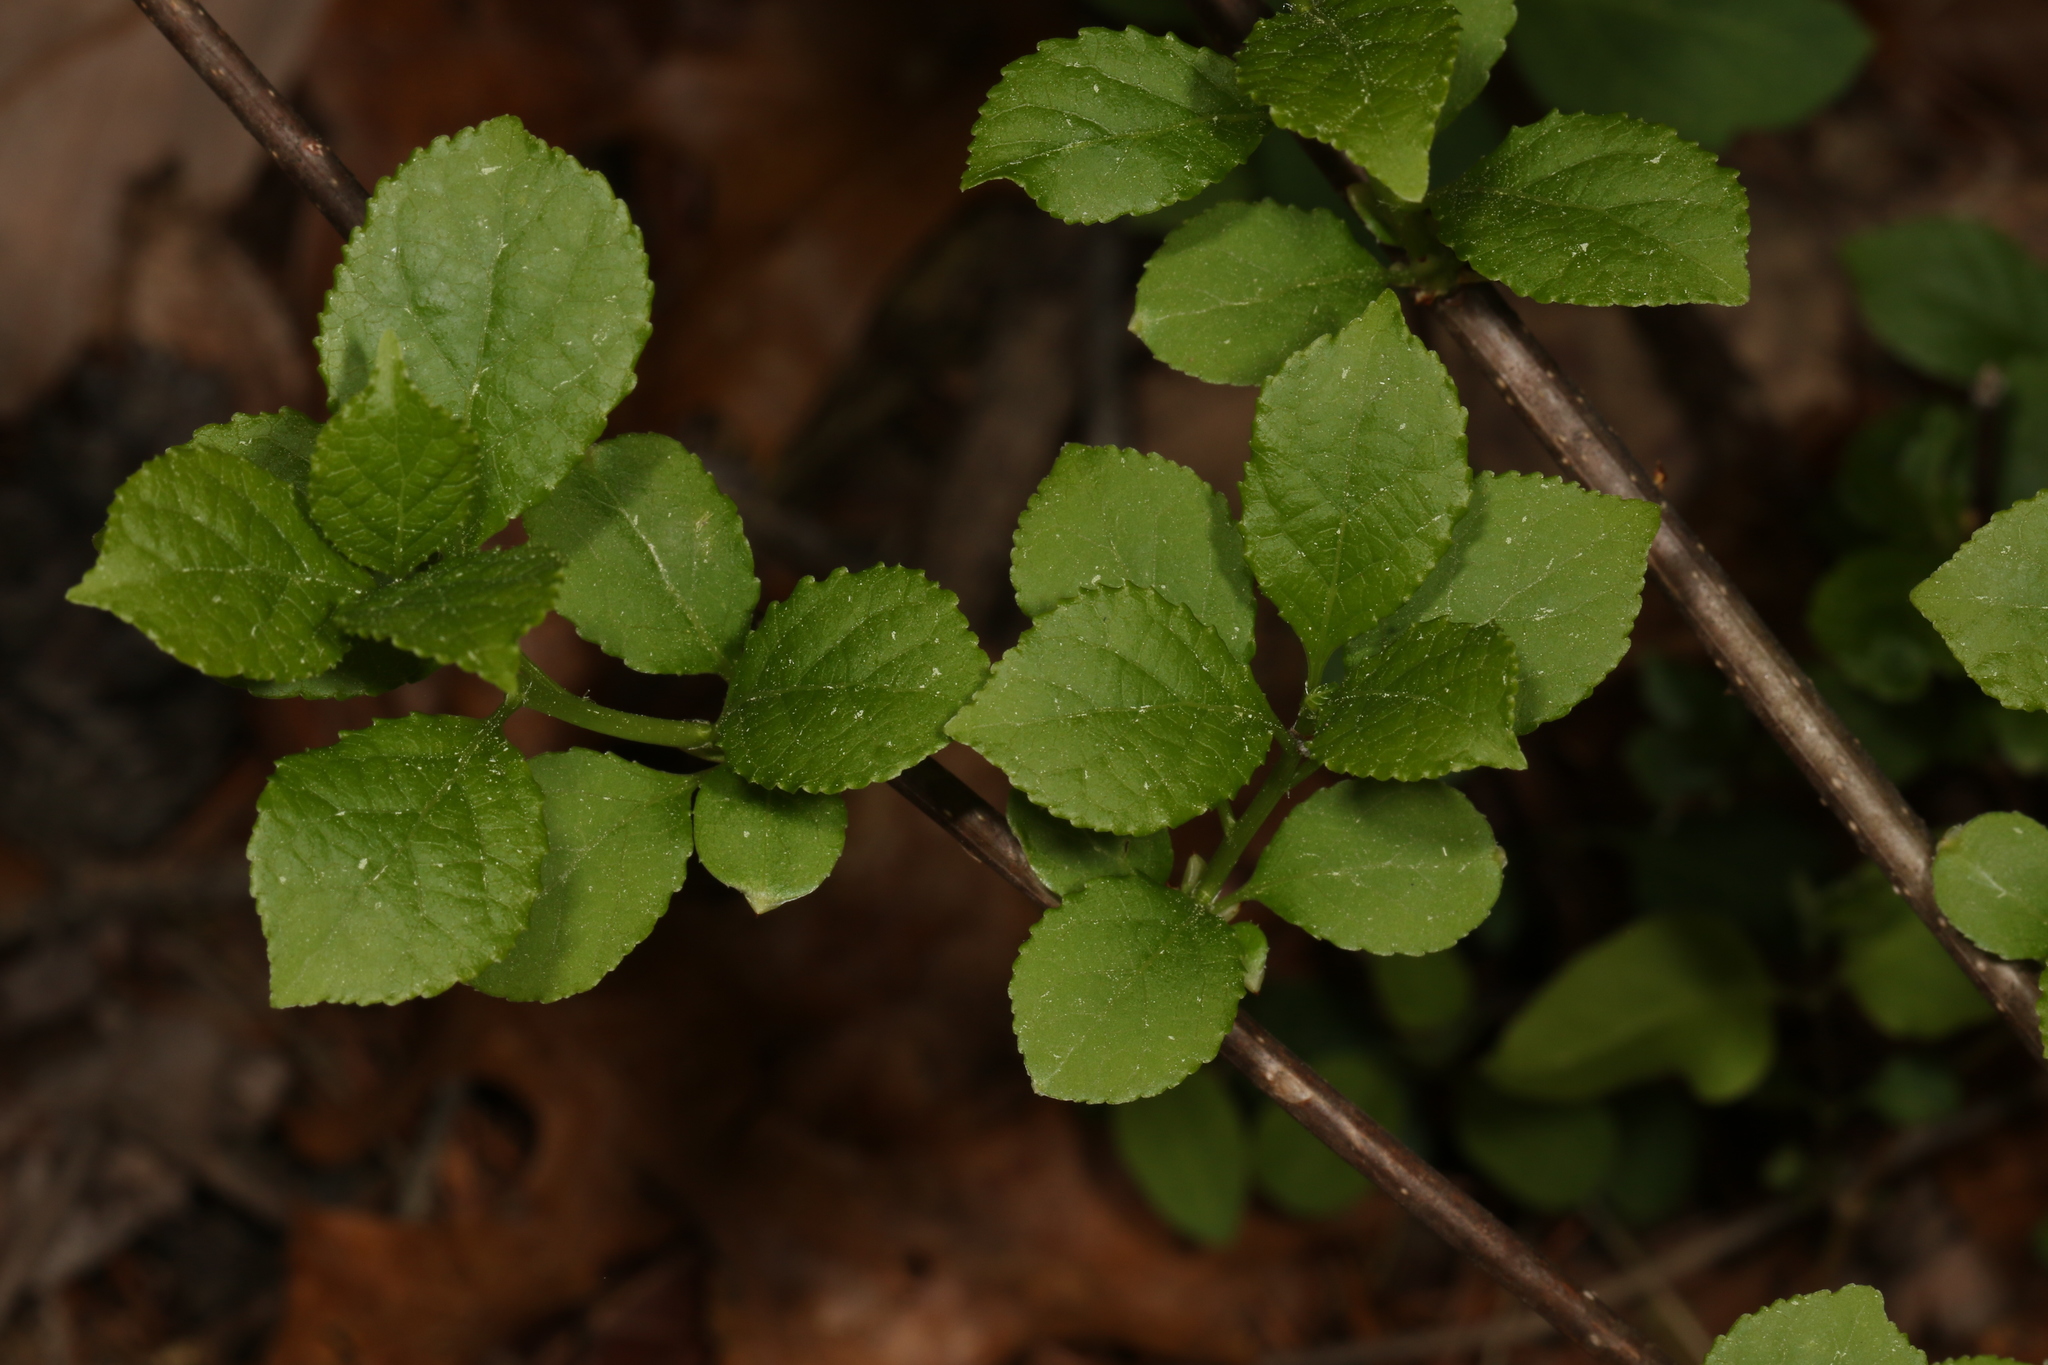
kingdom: Plantae
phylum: Tracheophyta
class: Magnoliopsida
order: Celastrales
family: Celastraceae
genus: Celastrus
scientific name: Celastrus orbiculatus
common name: Oriental bittersweet
